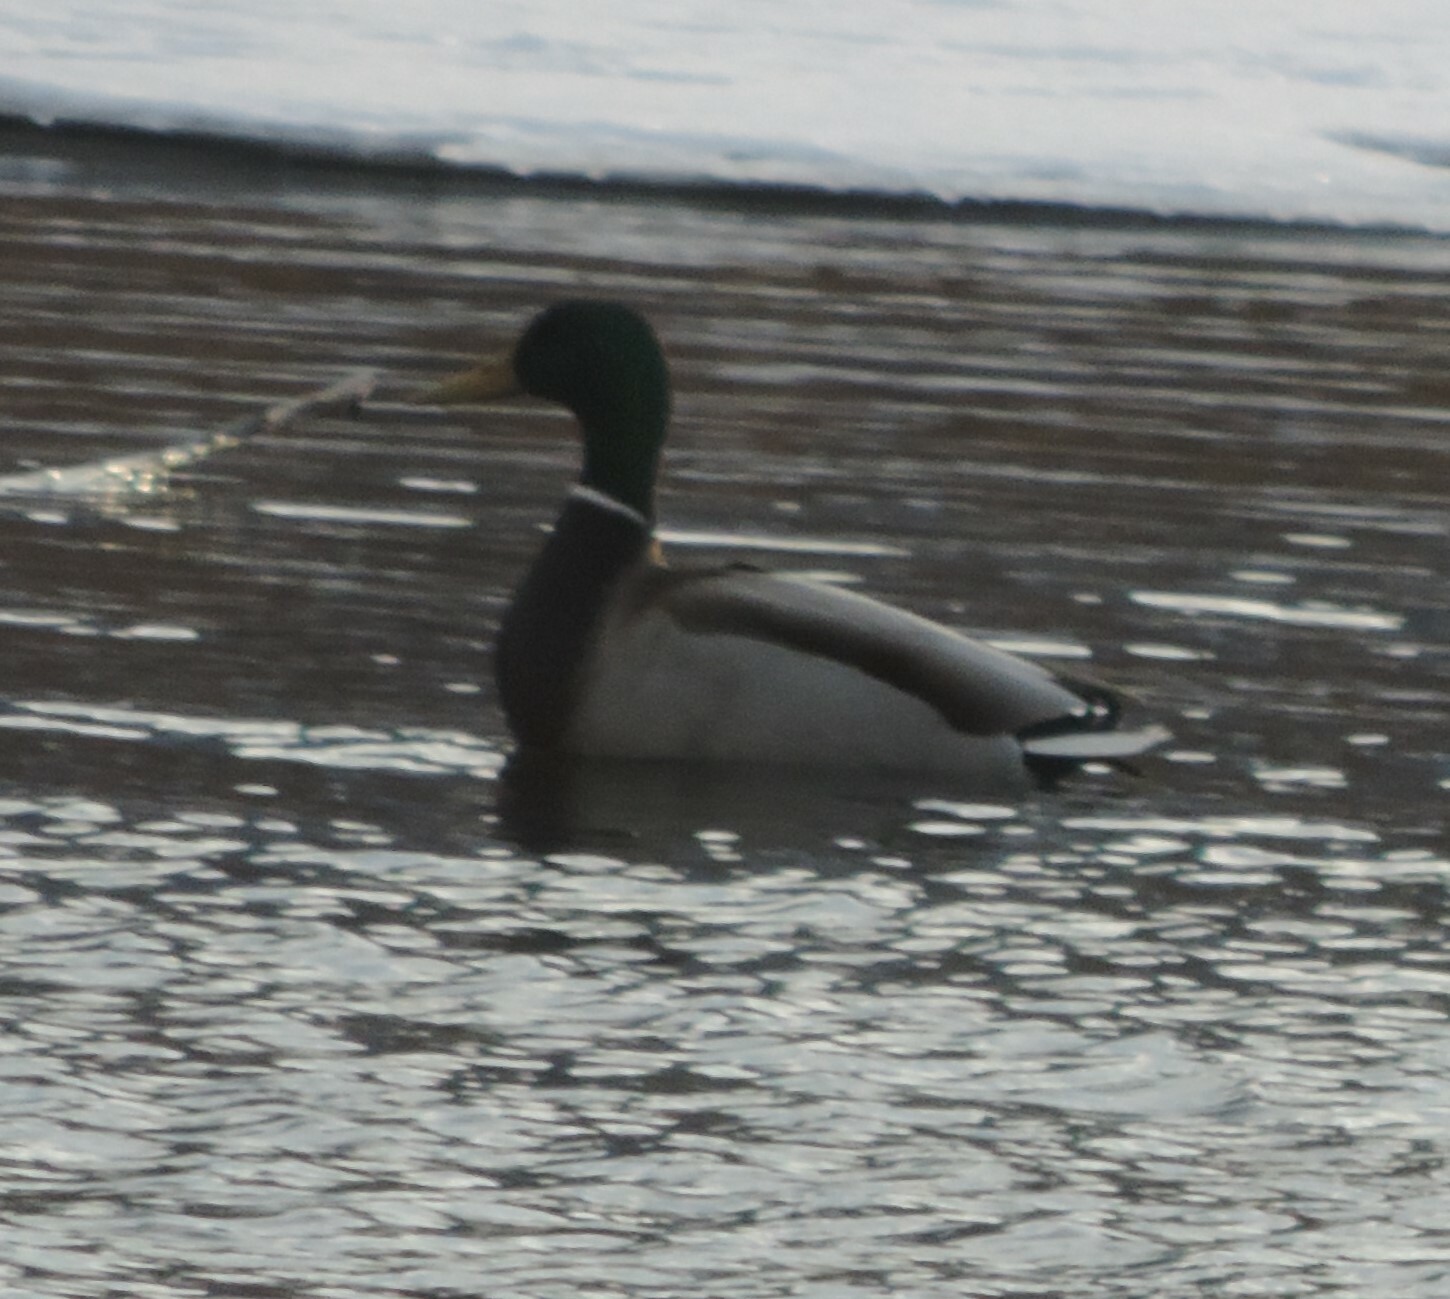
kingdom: Animalia
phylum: Chordata
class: Aves
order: Anseriformes
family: Anatidae
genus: Anas
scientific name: Anas platyrhynchos
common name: Mallard
